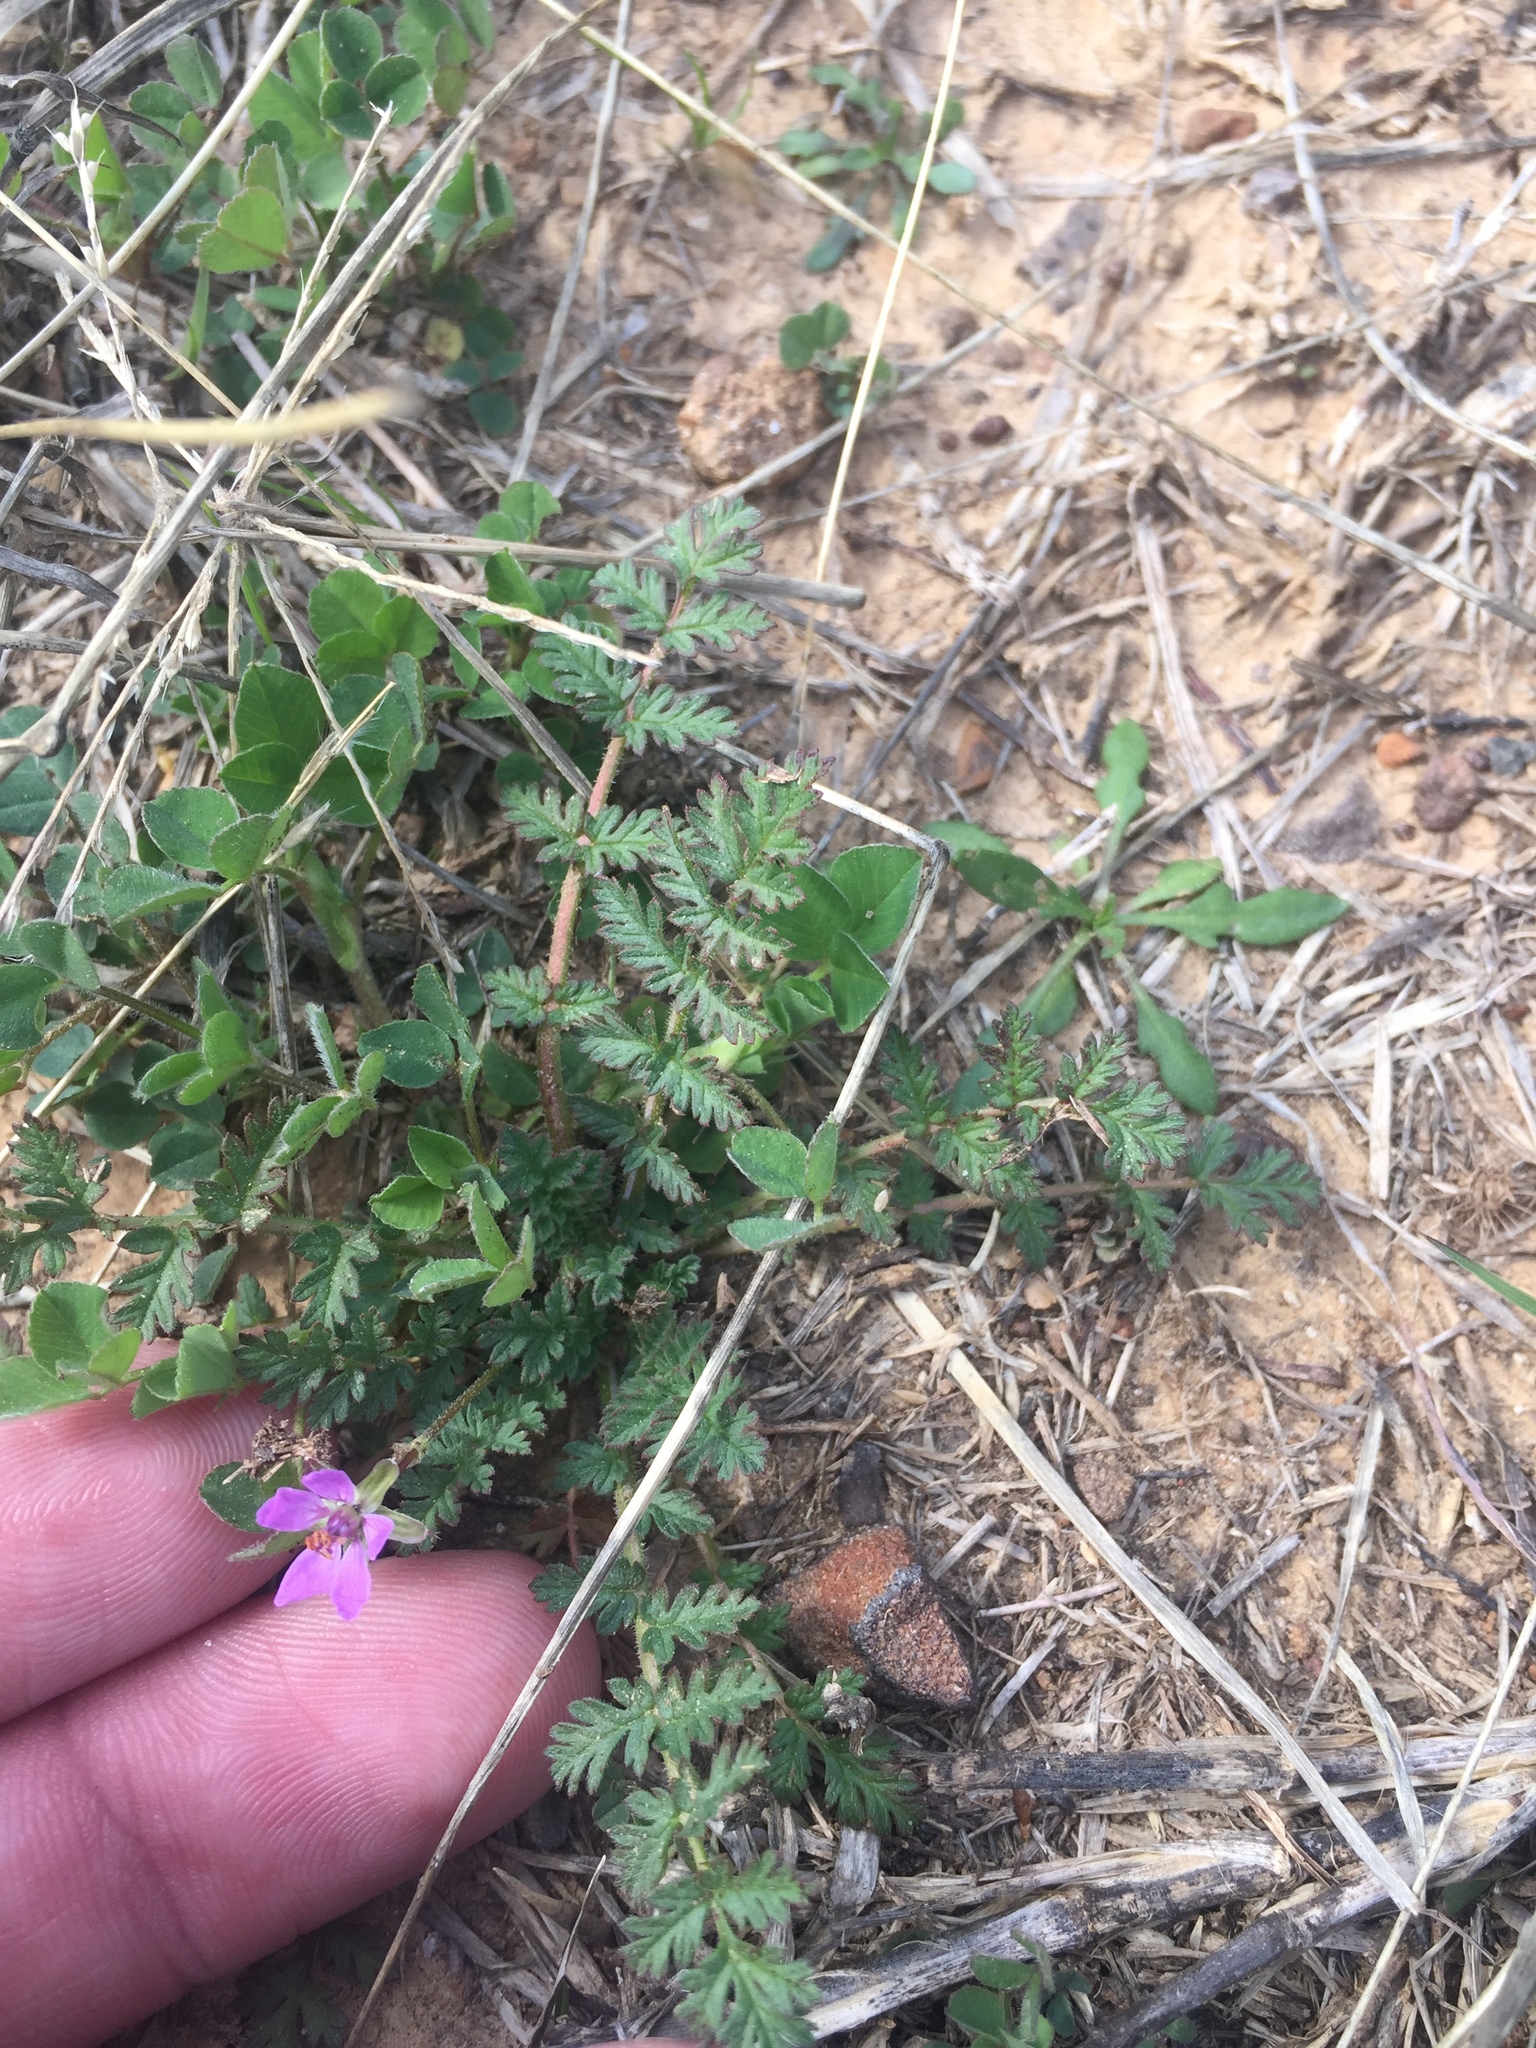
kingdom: Plantae
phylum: Tracheophyta
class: Magnoliopsida
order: Geraniales
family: Geraniaceae
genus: Erodium
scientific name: Erodium cicutarium
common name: Common stork's-bill
